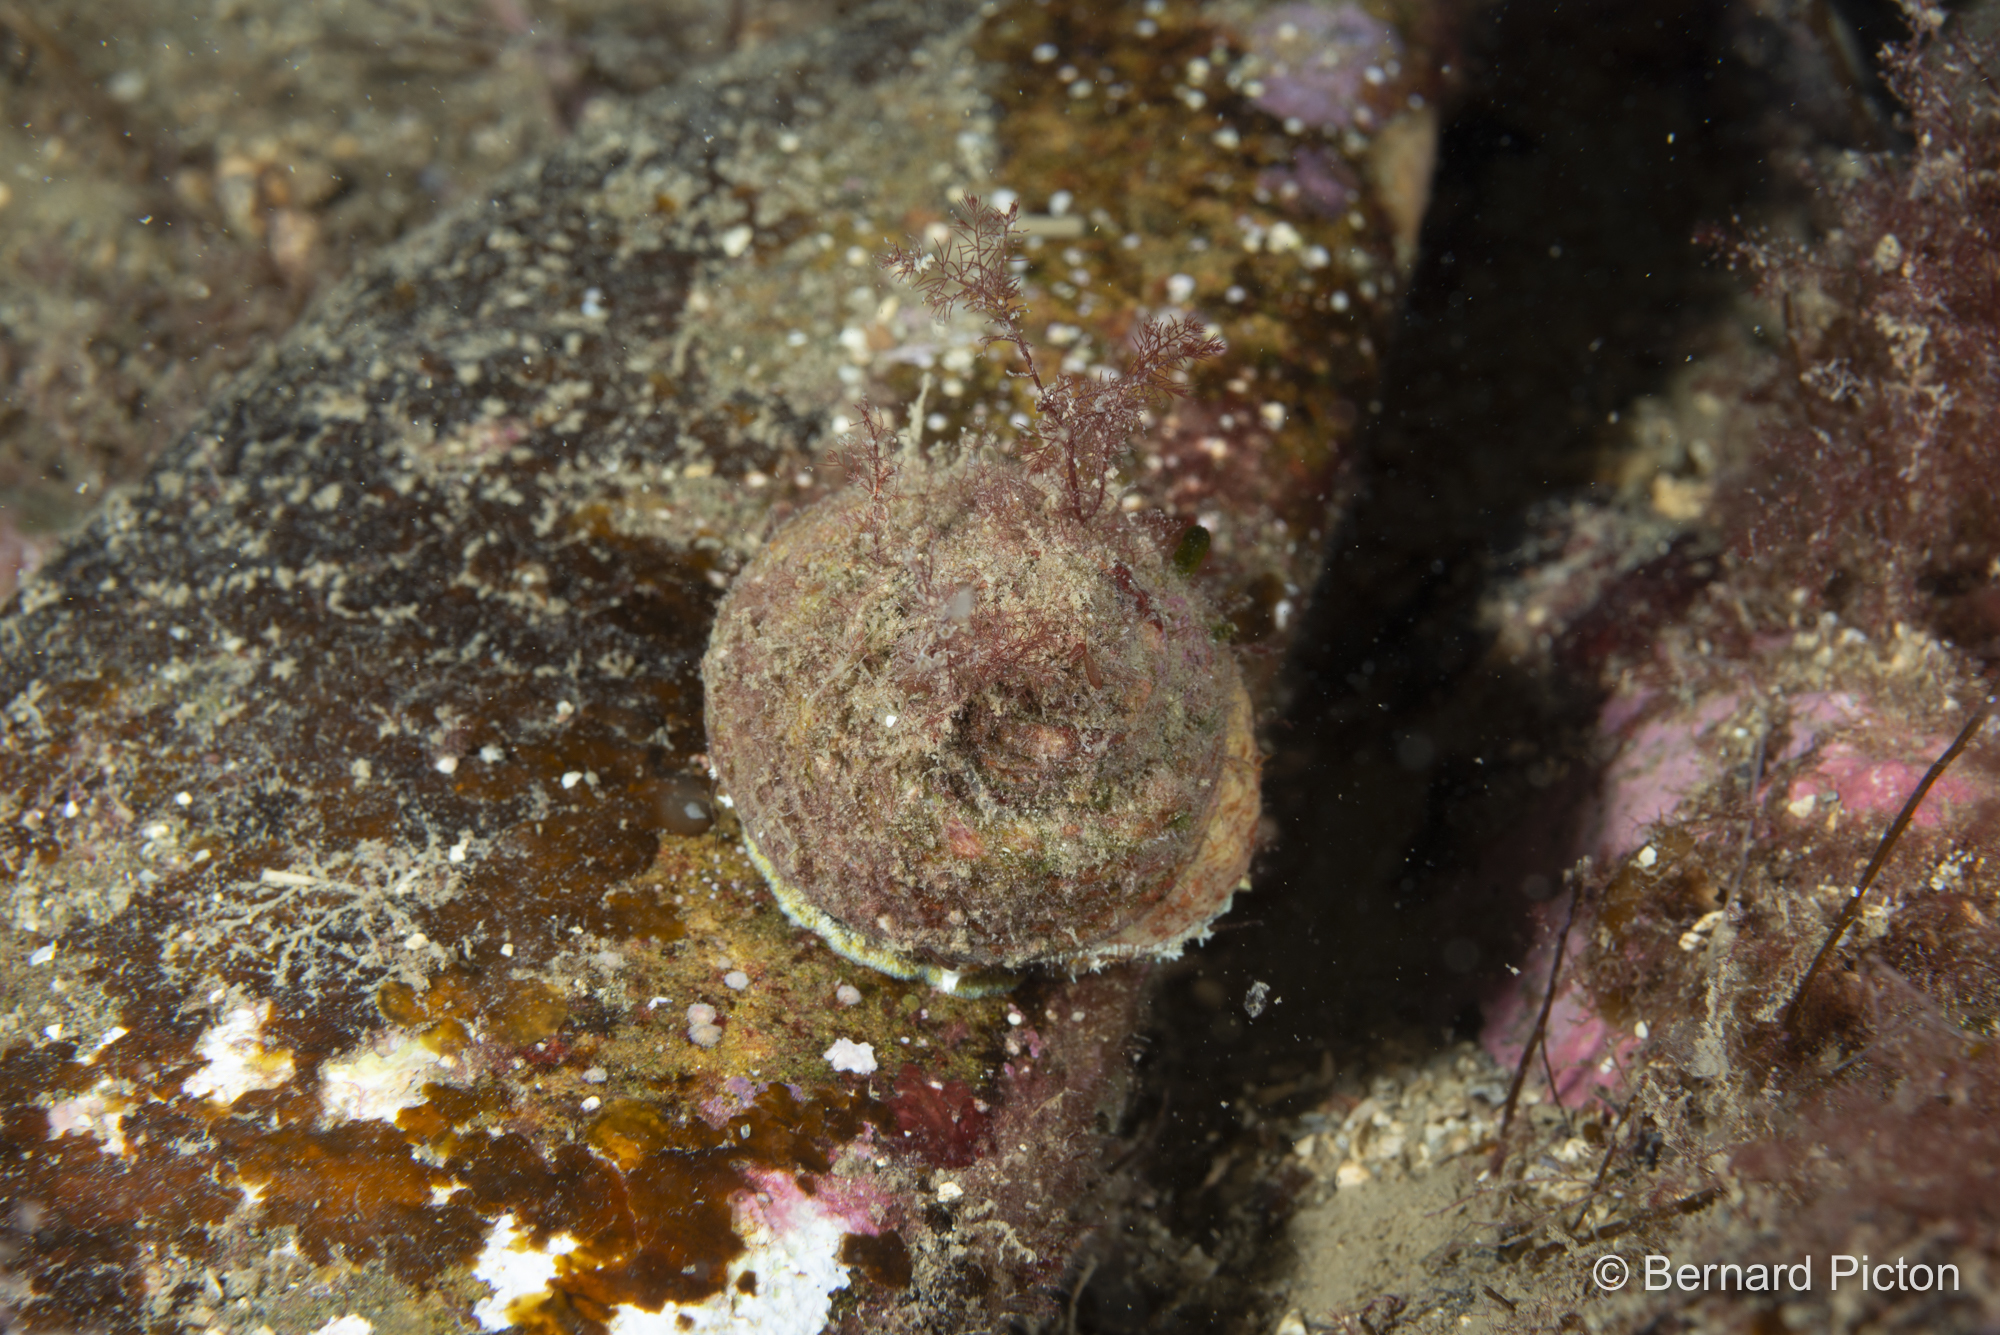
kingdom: Animalia
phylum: Mollusca
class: Gastropoda
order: Trochida
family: Trochidae
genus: Gibbula
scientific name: Gibbula magus
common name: Turban top shell
